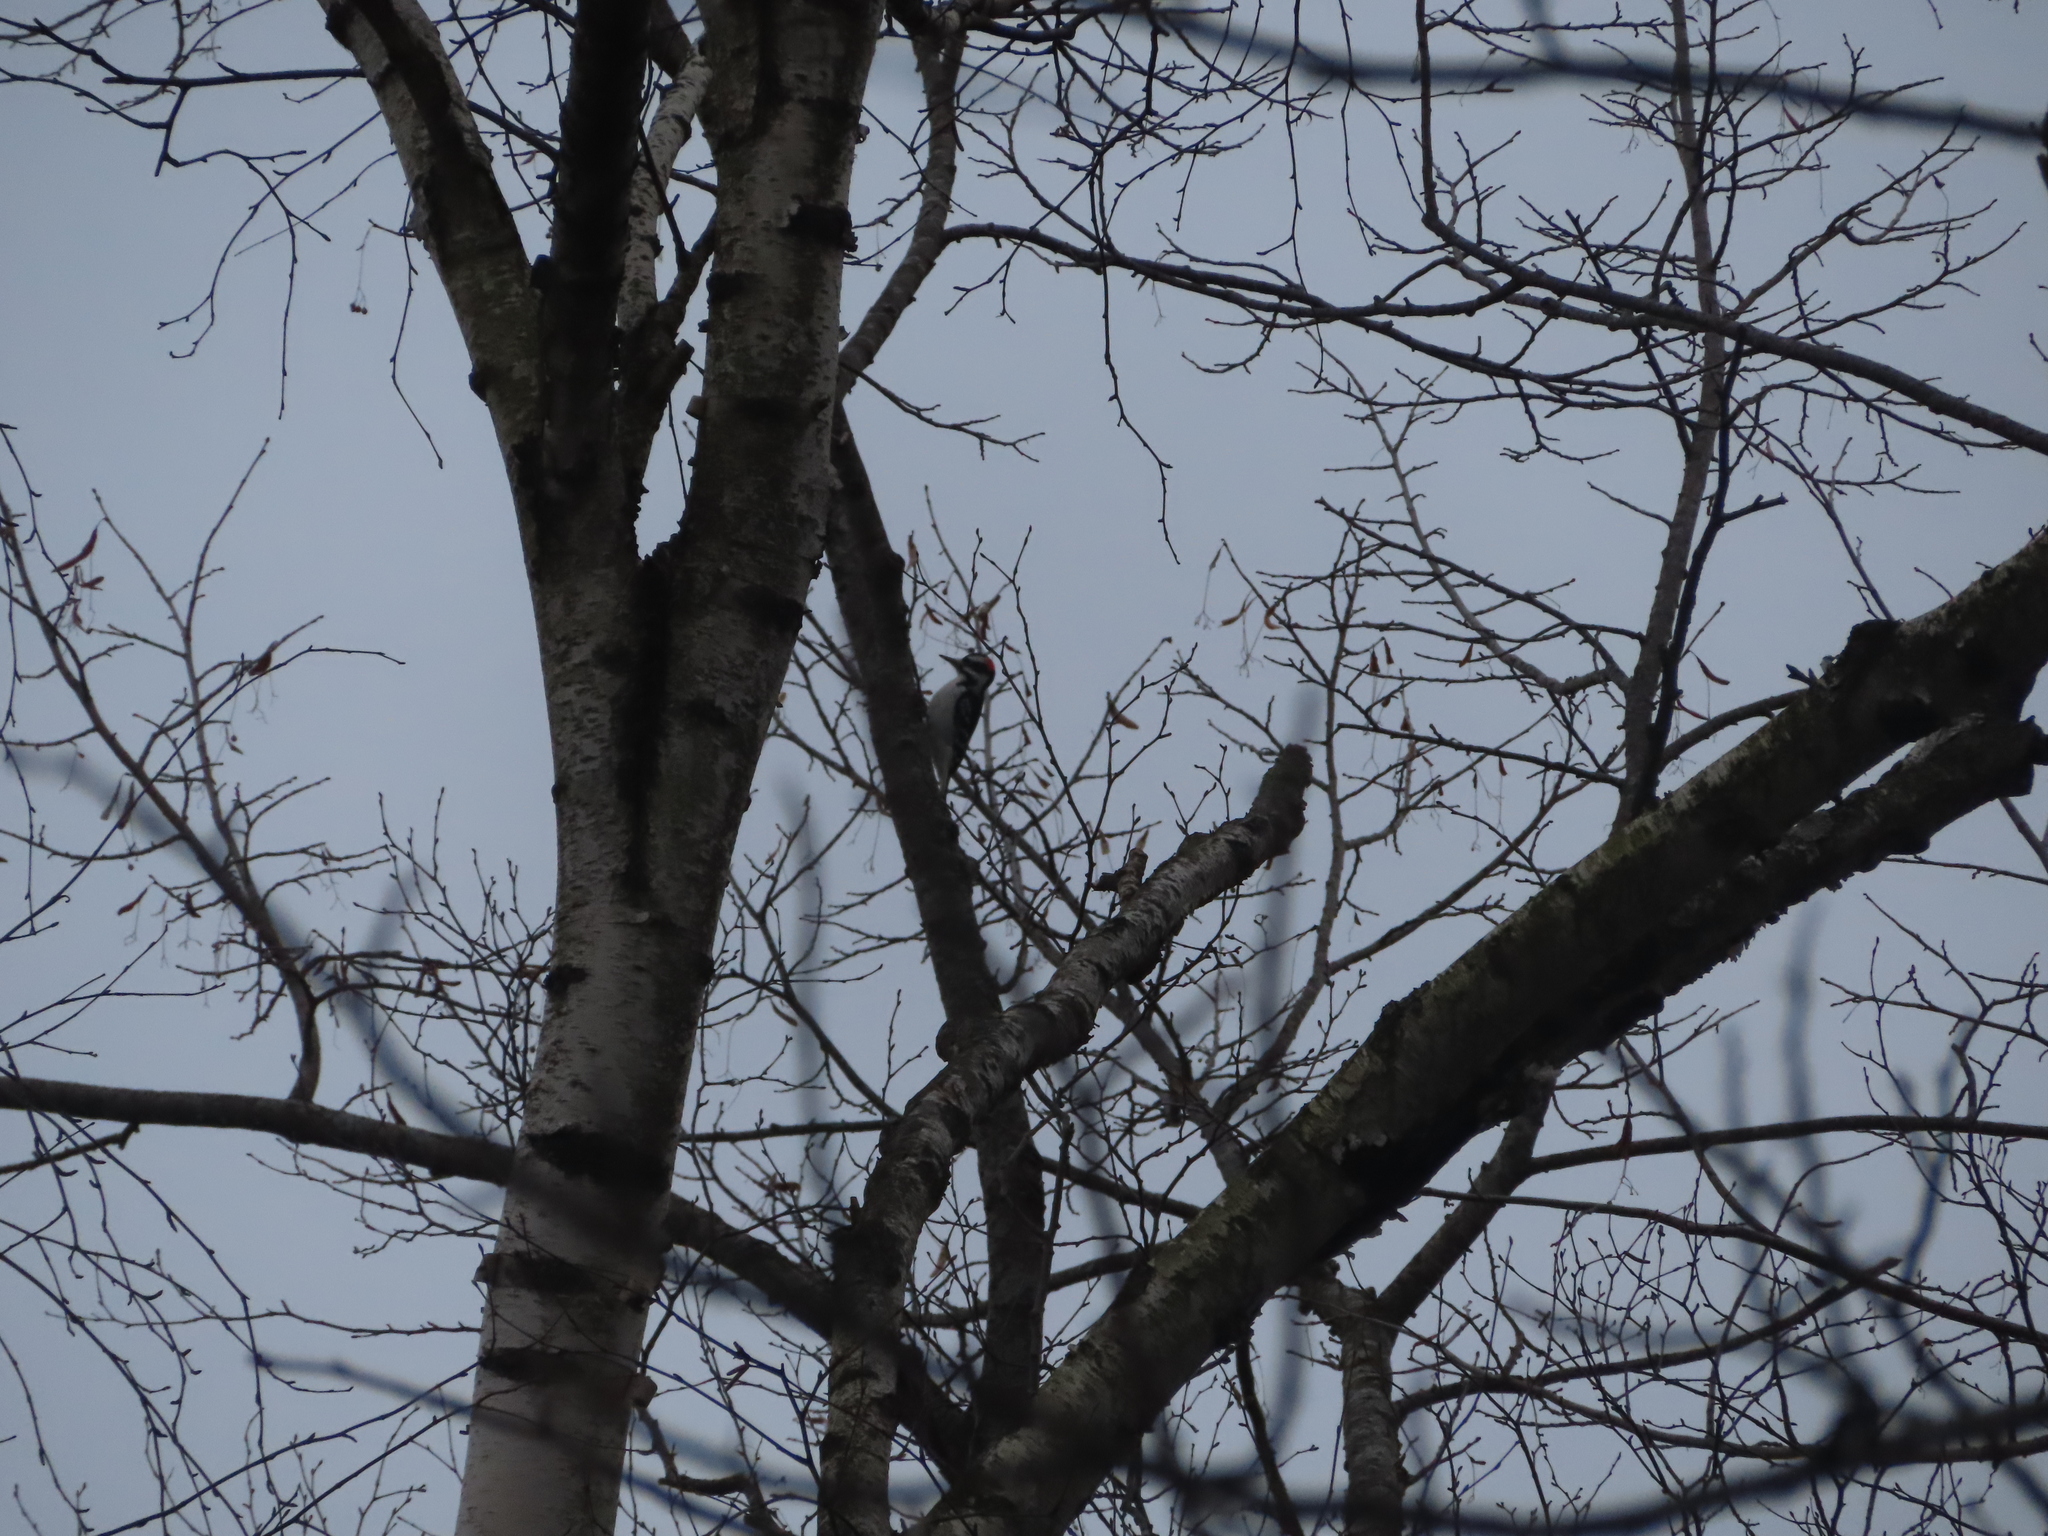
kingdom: Animalia
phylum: Chordata
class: Aves
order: Piciformes
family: Picidae
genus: Leuconotopicus
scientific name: Leuconotopicus villosus
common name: Hairy woodpecker
